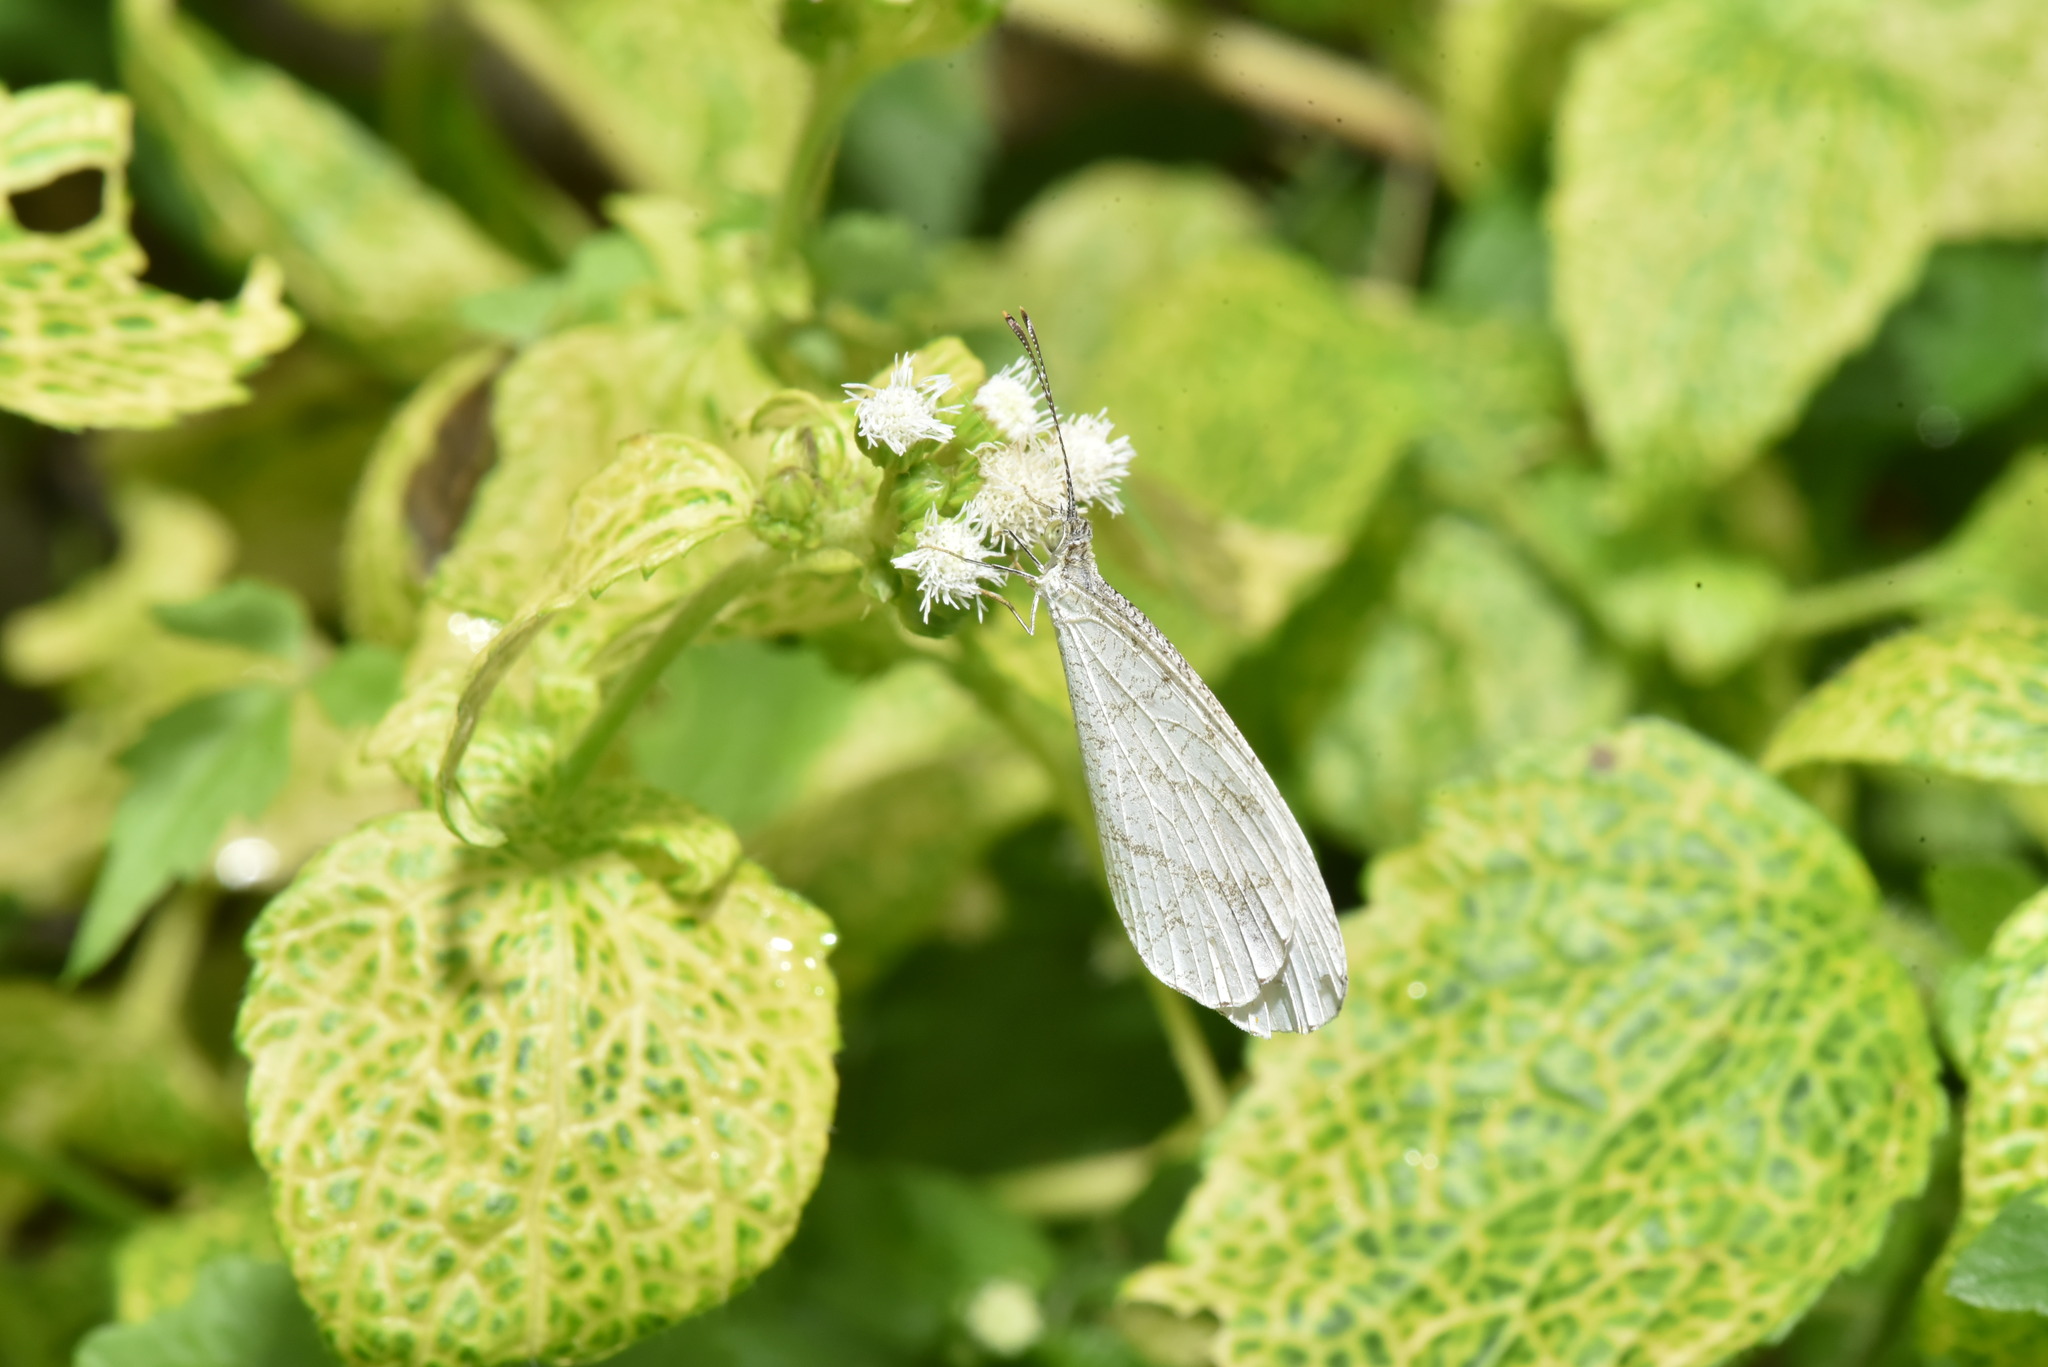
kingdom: Animalia
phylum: Arthropoda
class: Insecta
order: Lepidoptera
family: Pieridae
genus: Leptosia
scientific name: Leptosia nina
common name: Psyche
